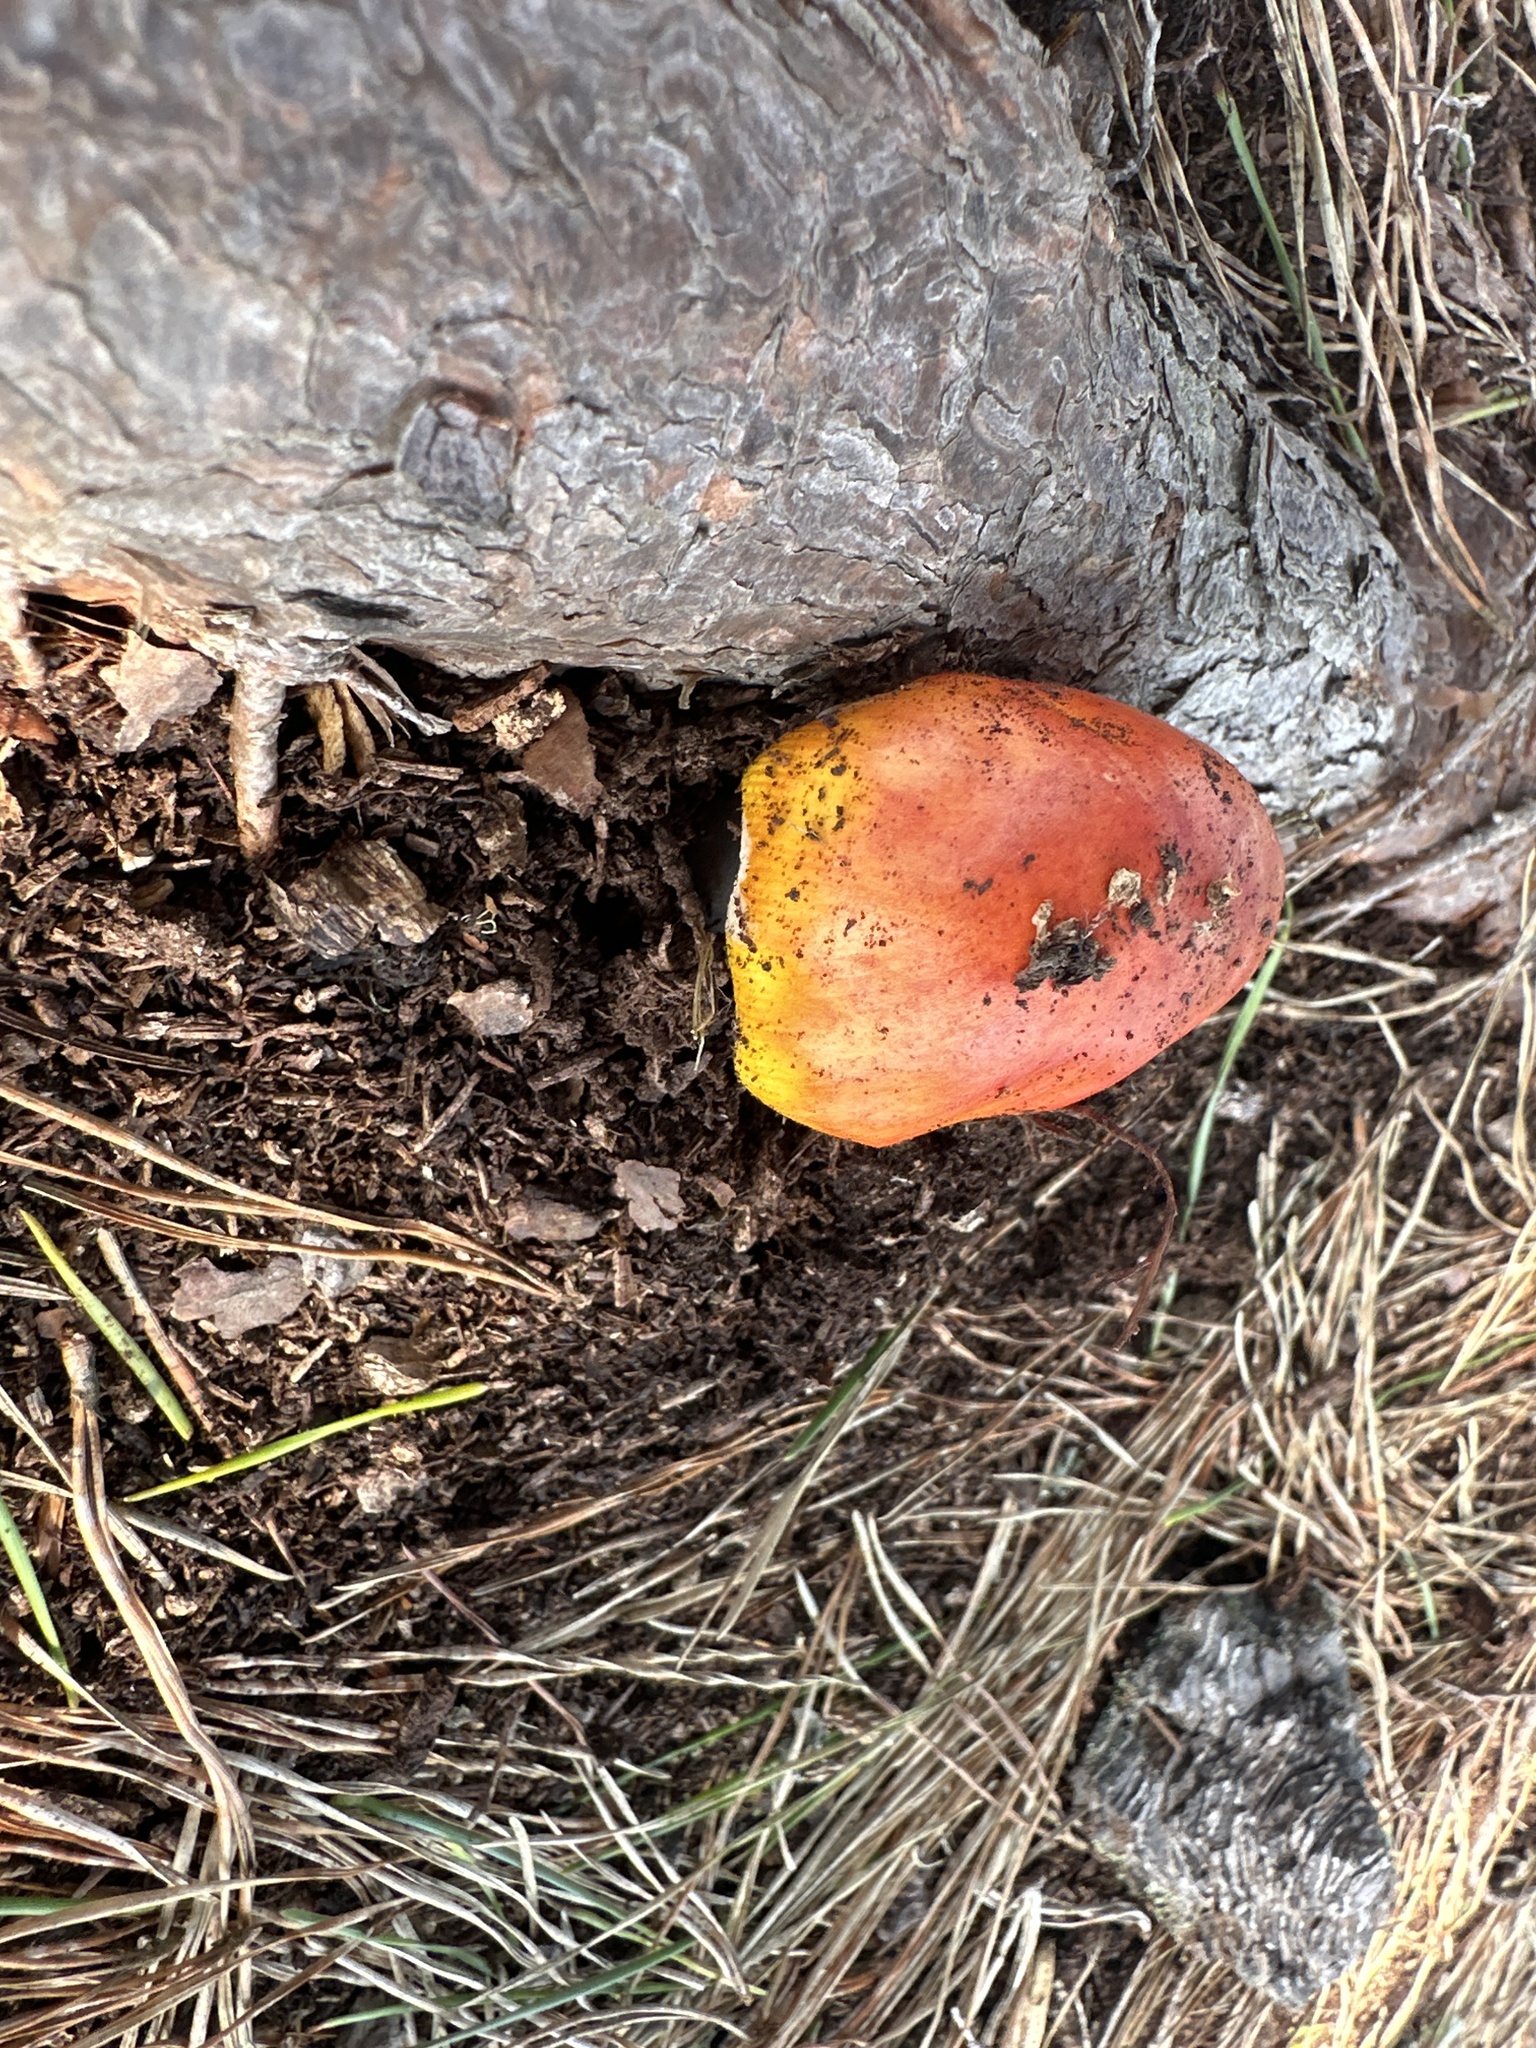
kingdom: Fungi
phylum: Basidiomycota
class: Agaricomycetes
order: Agaricales
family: Amanitaceae
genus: Amanita
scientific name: Amanita muscaria
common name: Fly agaric
